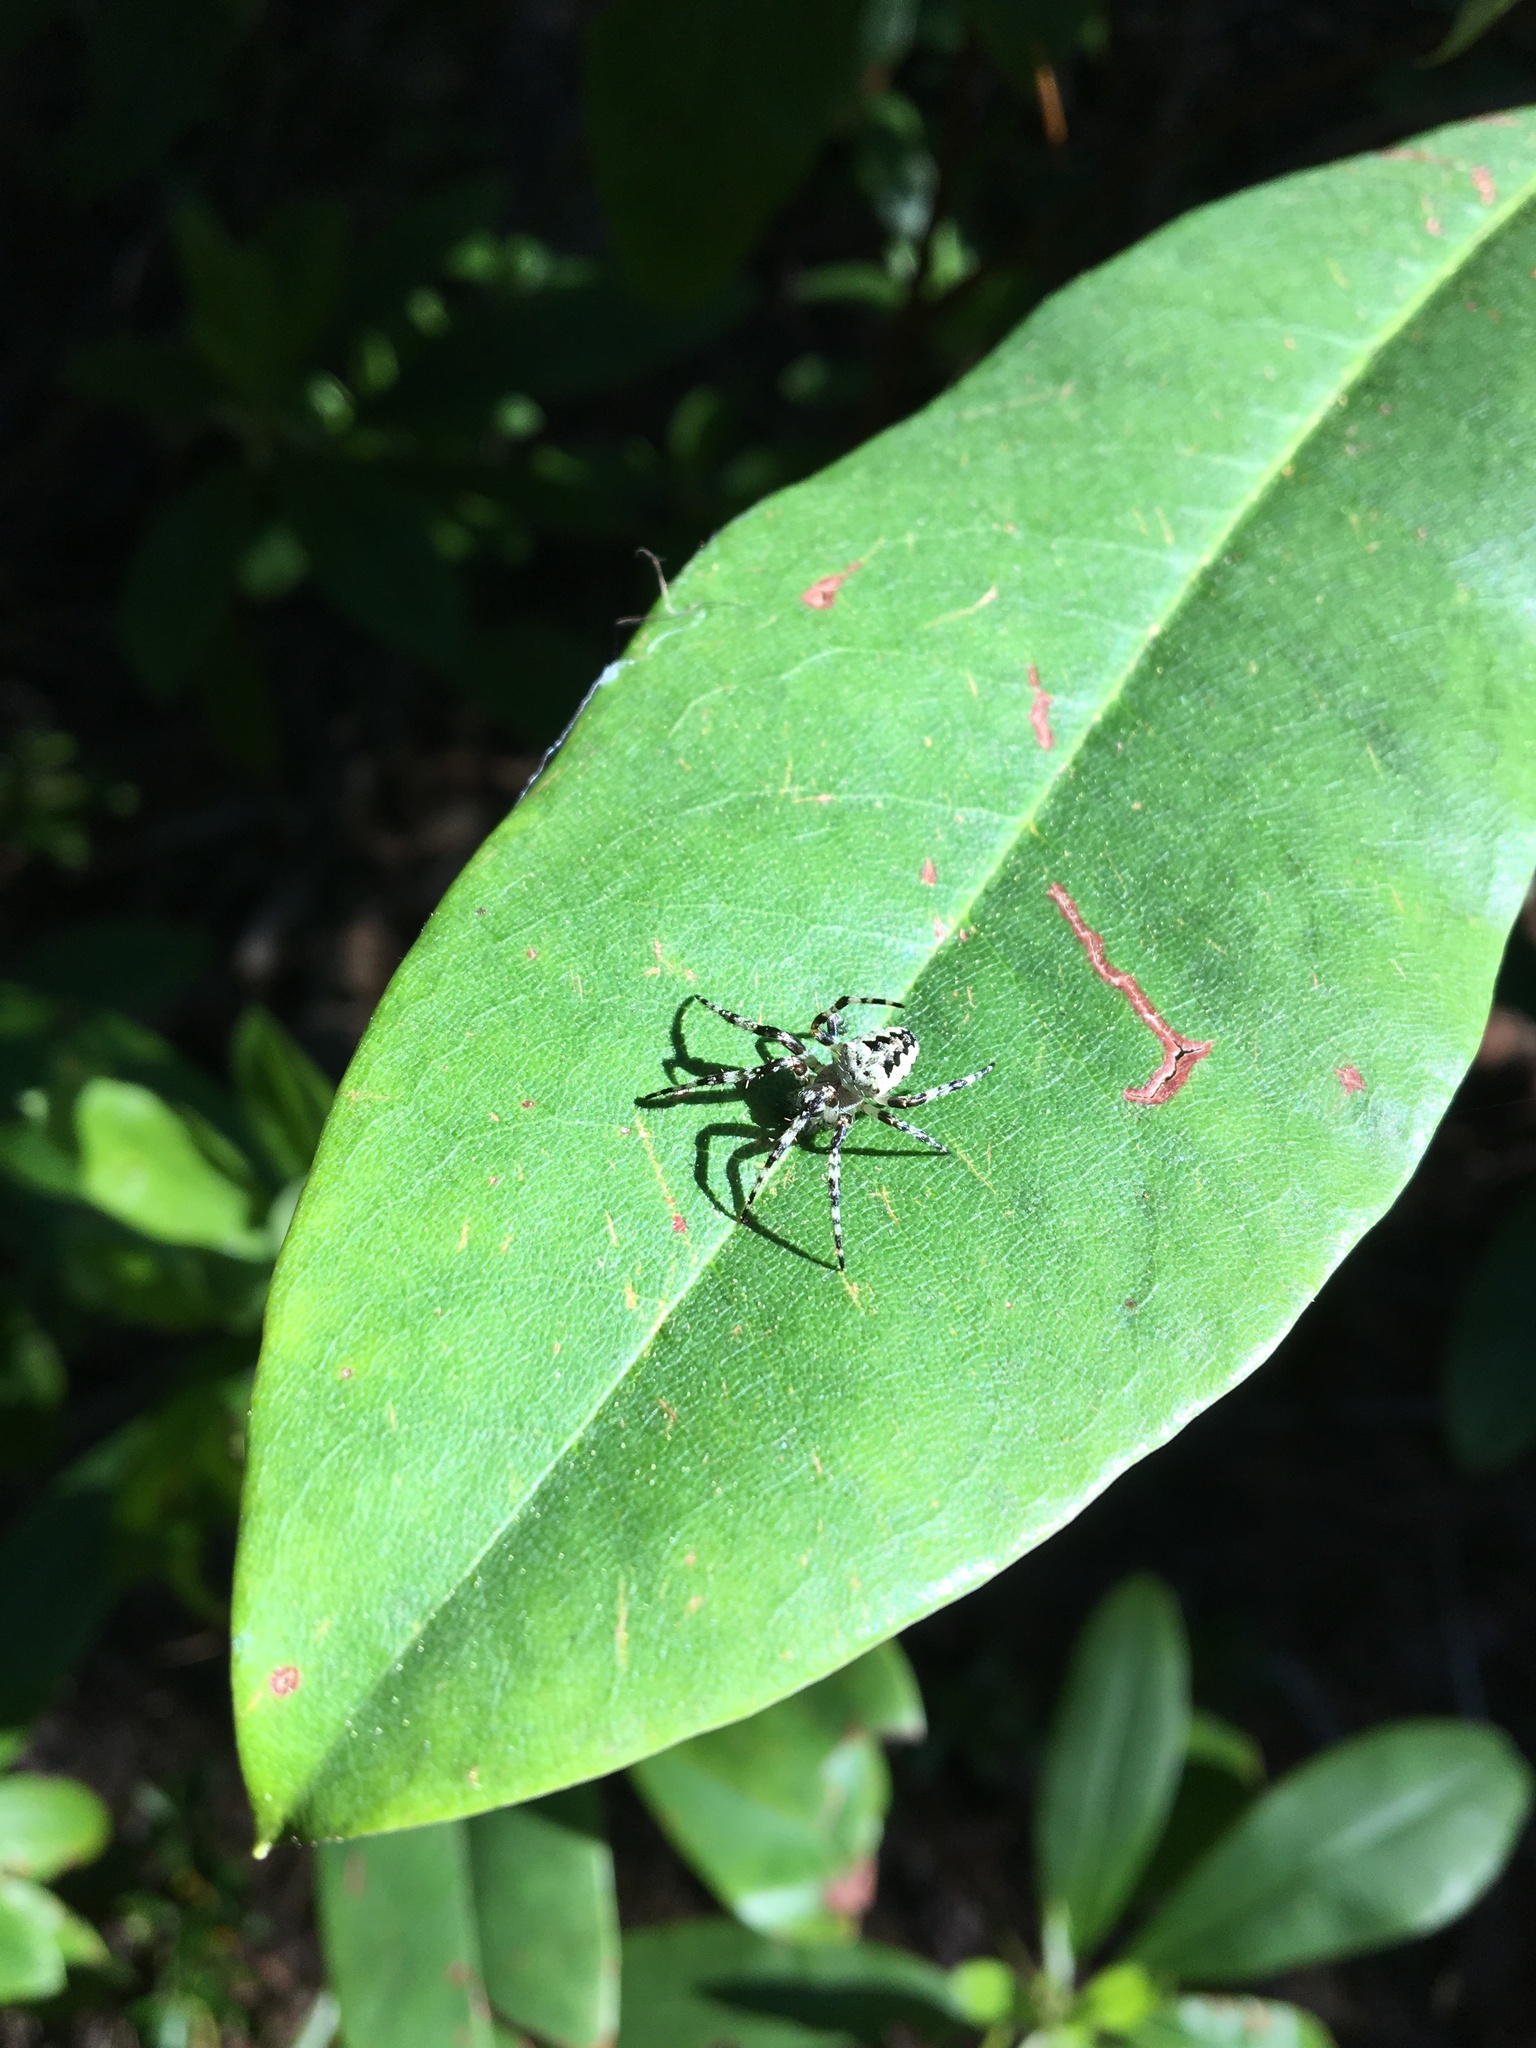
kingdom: Animalia
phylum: Arthropoda
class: Arachnida
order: Araneae
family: Araneidae
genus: Araneus
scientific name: Araneus nordmanni
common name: Nordmann's orbweaver
